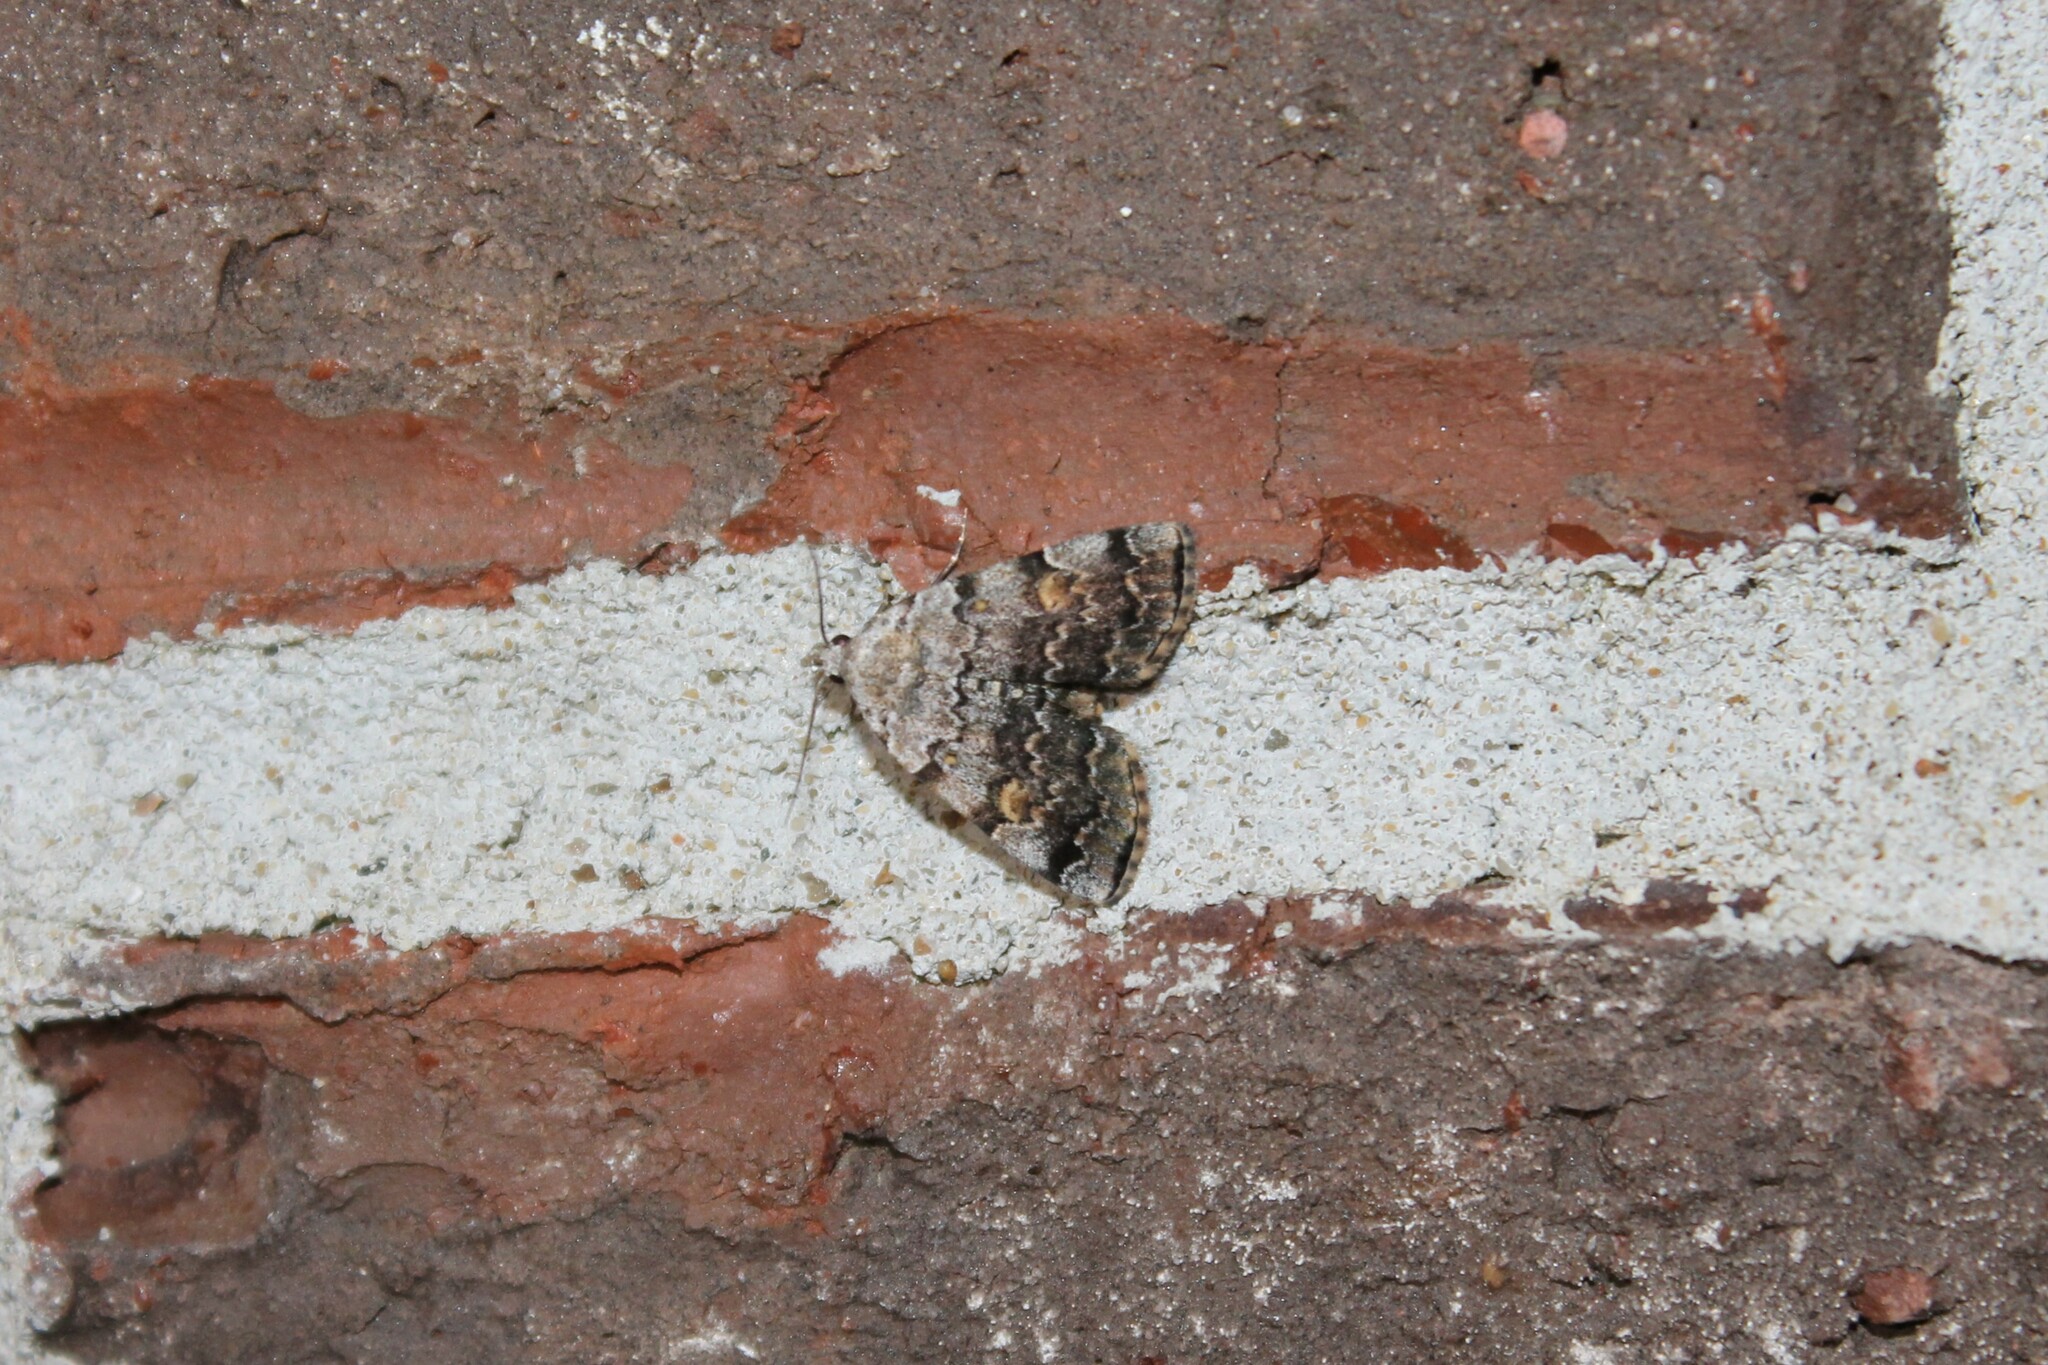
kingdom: Animalia
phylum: Arthropoda
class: Insecta
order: Lepidoptera
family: Erebidae
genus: Idia
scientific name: Idia americalis
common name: American idia moth
